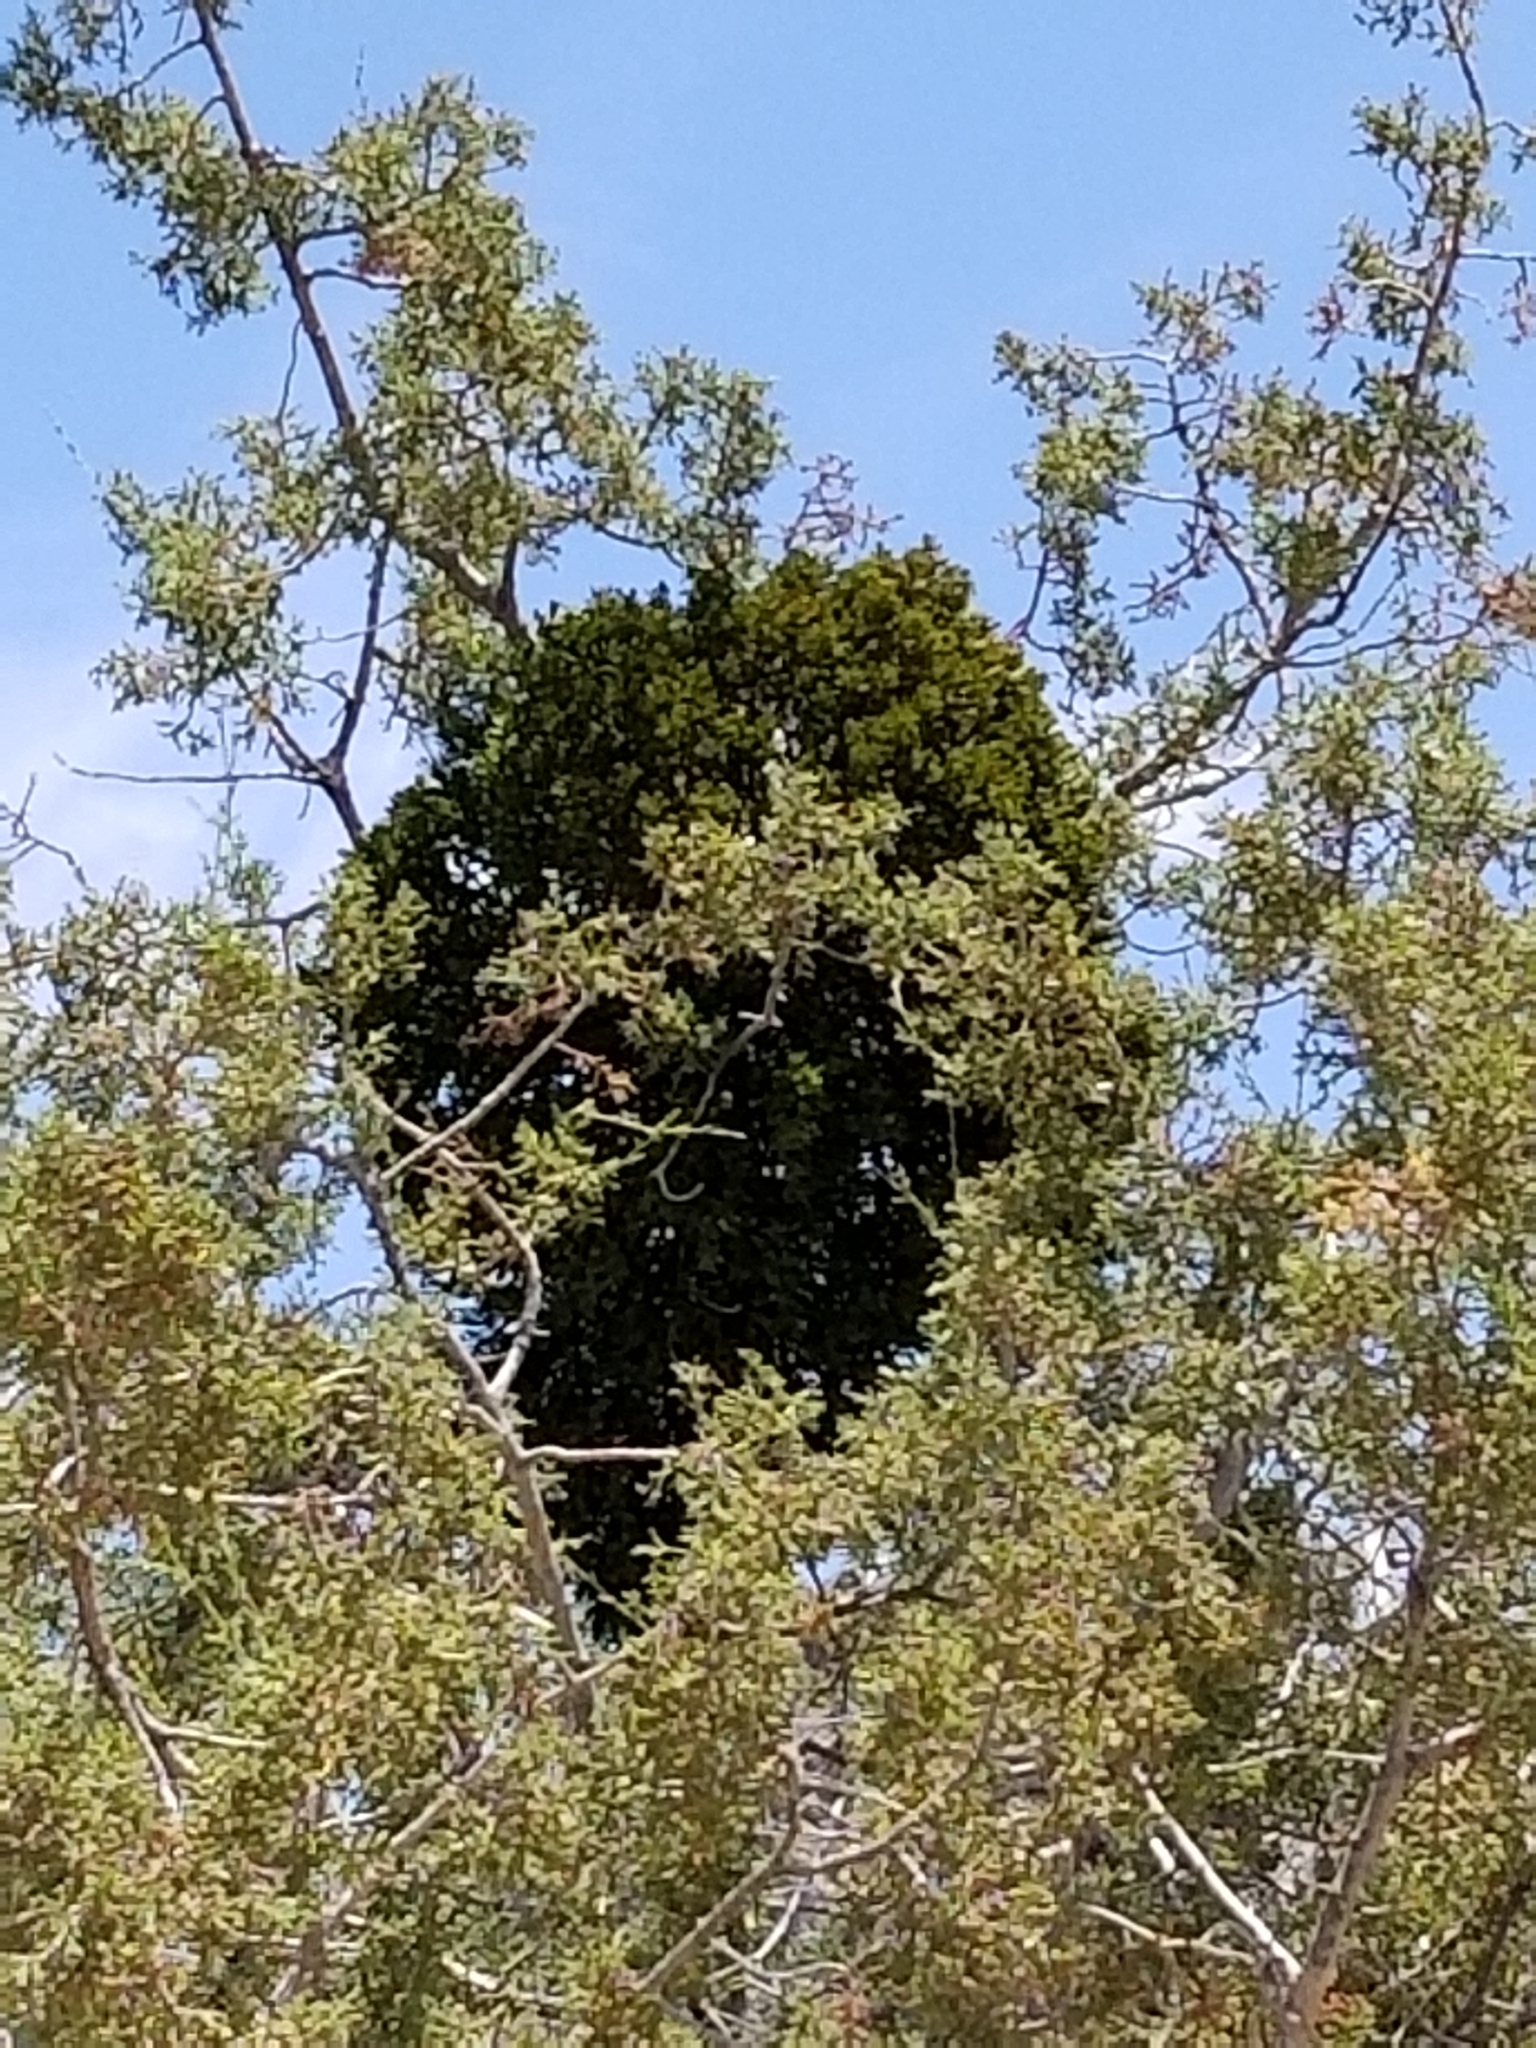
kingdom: Plantae
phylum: Tracheophyta
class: Magnoliopsida
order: Santalales
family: Viscaceae
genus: Phoradendron
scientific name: Phoradendron bolleanum
